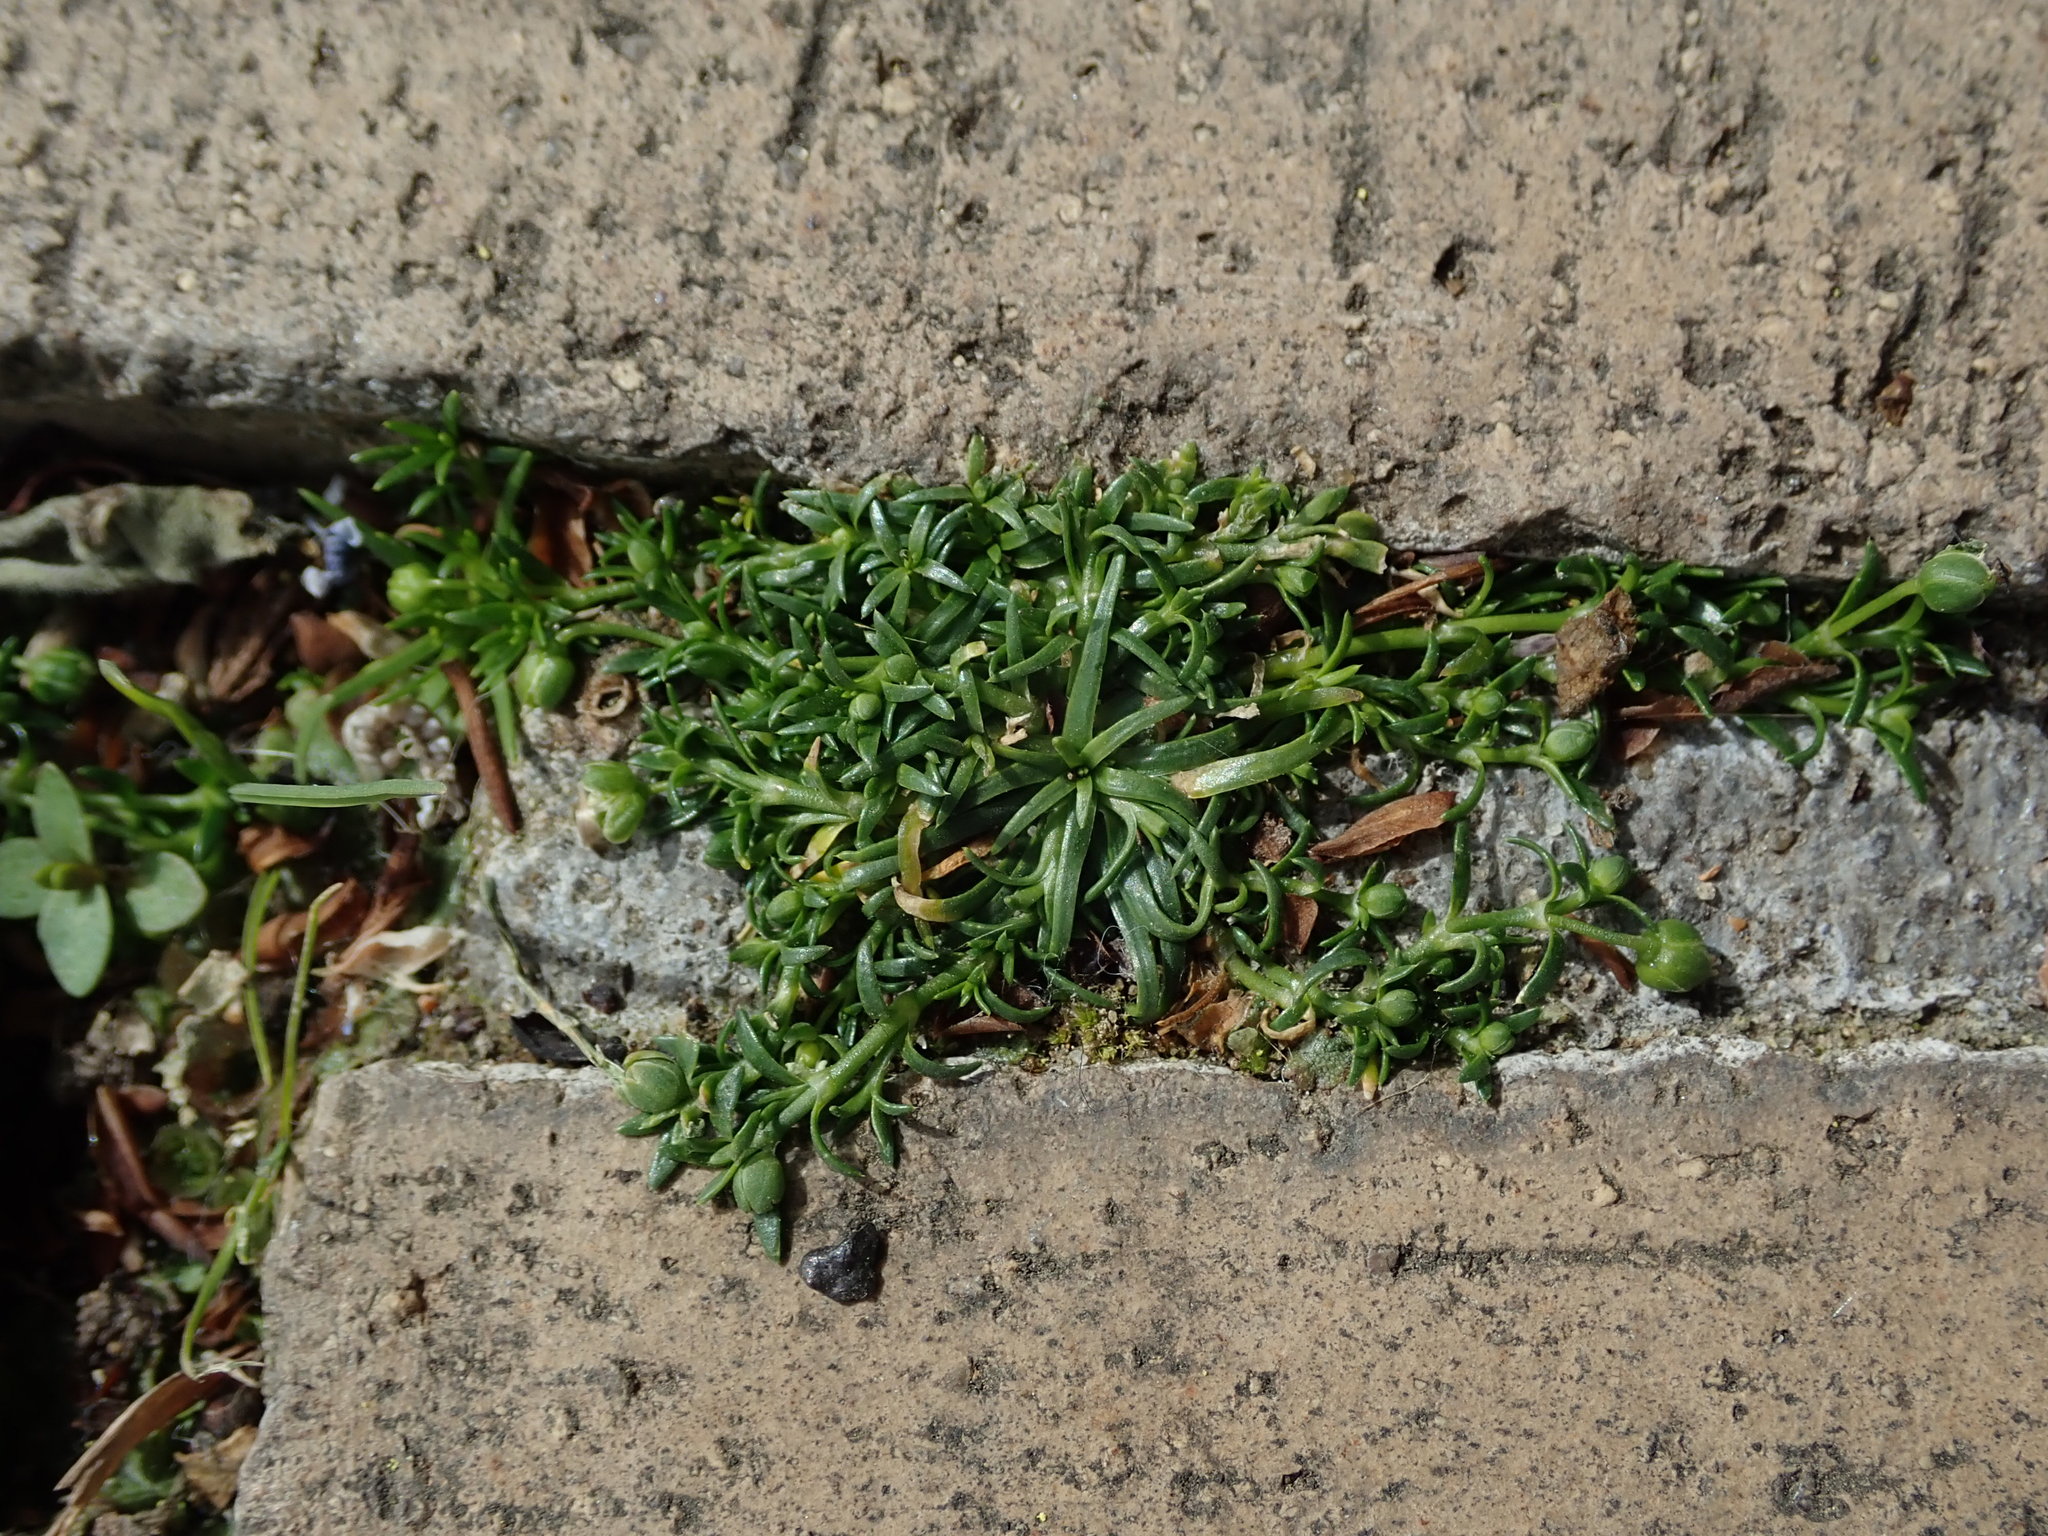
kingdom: Plantae
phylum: Tracheophyta
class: Magnoliopsida
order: Caryophyllales
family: Caryophyllaceae
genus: Sagina
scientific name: Sagina procumbens
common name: Procumbent pearlwort
